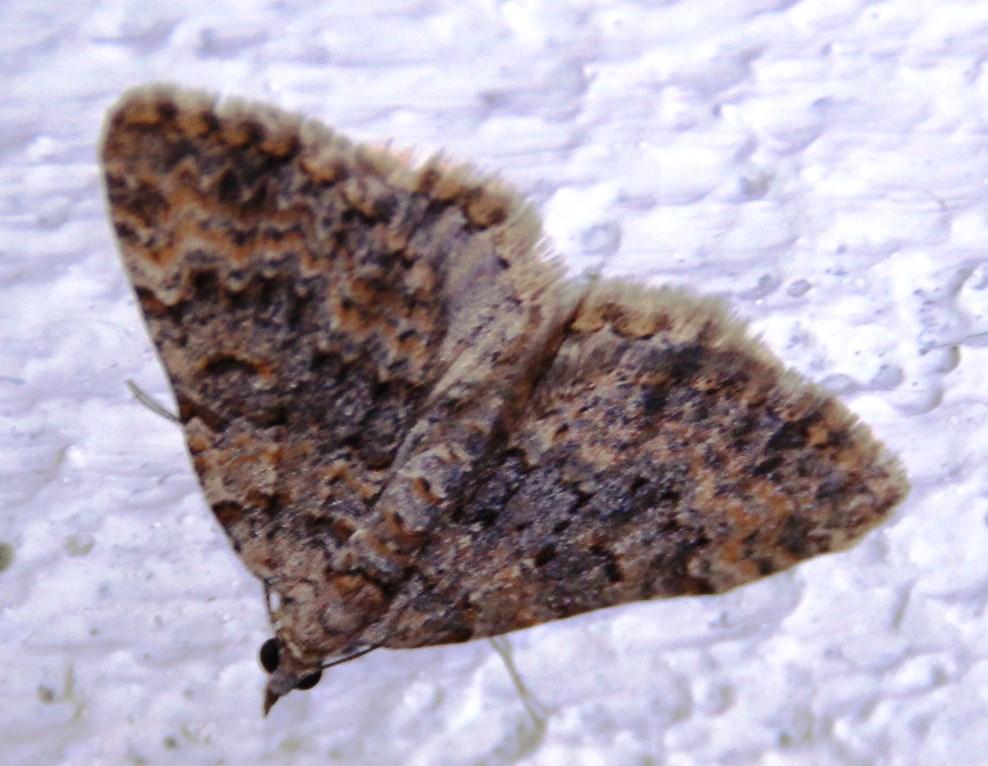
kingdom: Animalia
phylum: Arthropoda
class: Insecta
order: Lepidoptera
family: Geometridae
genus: Mimoclystia
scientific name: Mimoclystia undulosata
